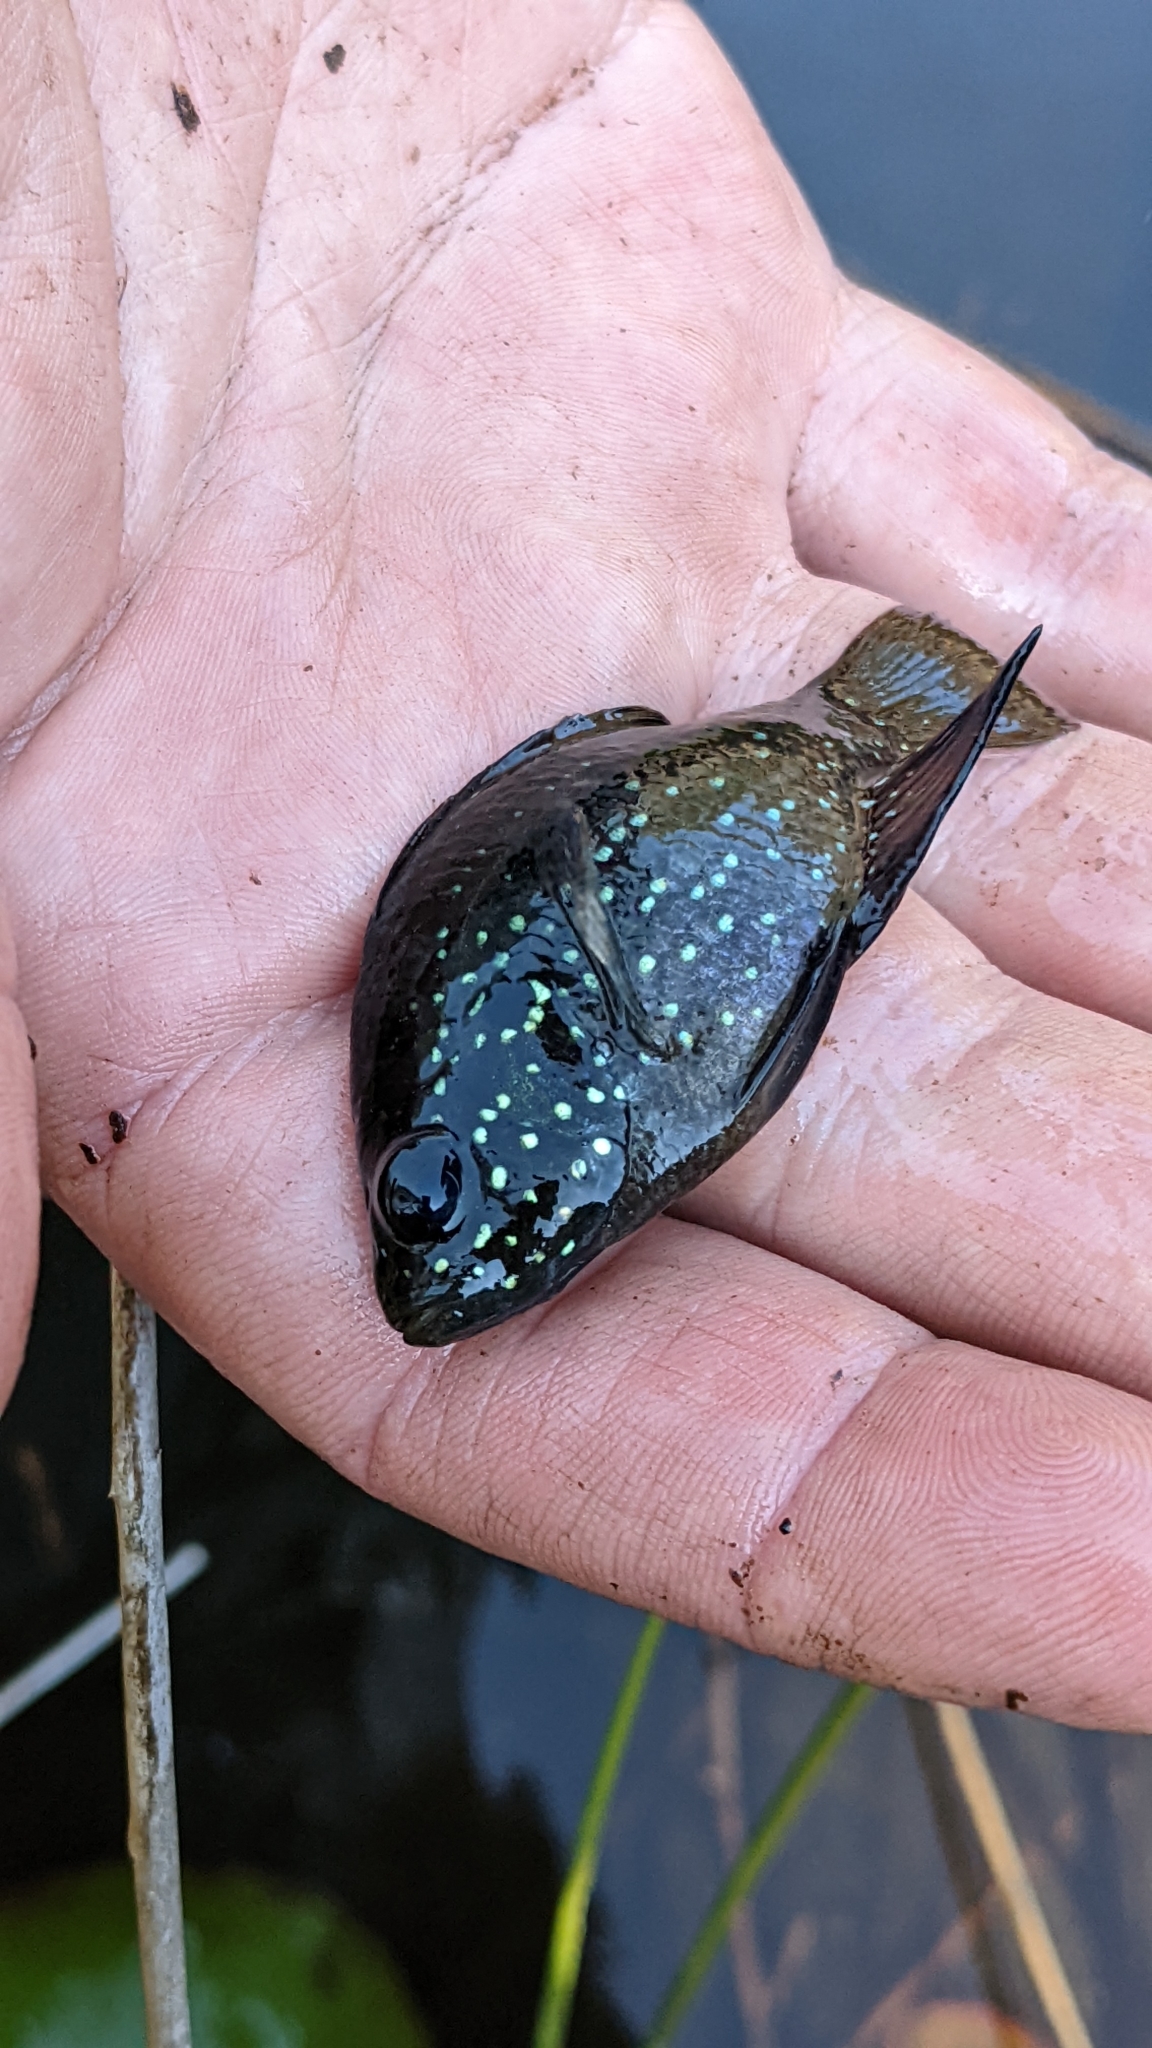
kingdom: Animalia
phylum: Chordata
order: Perciformes
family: Centrarchidae
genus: Enneacanthus
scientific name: Enneacanthus gloriosus
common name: Bluespotted sunfish
